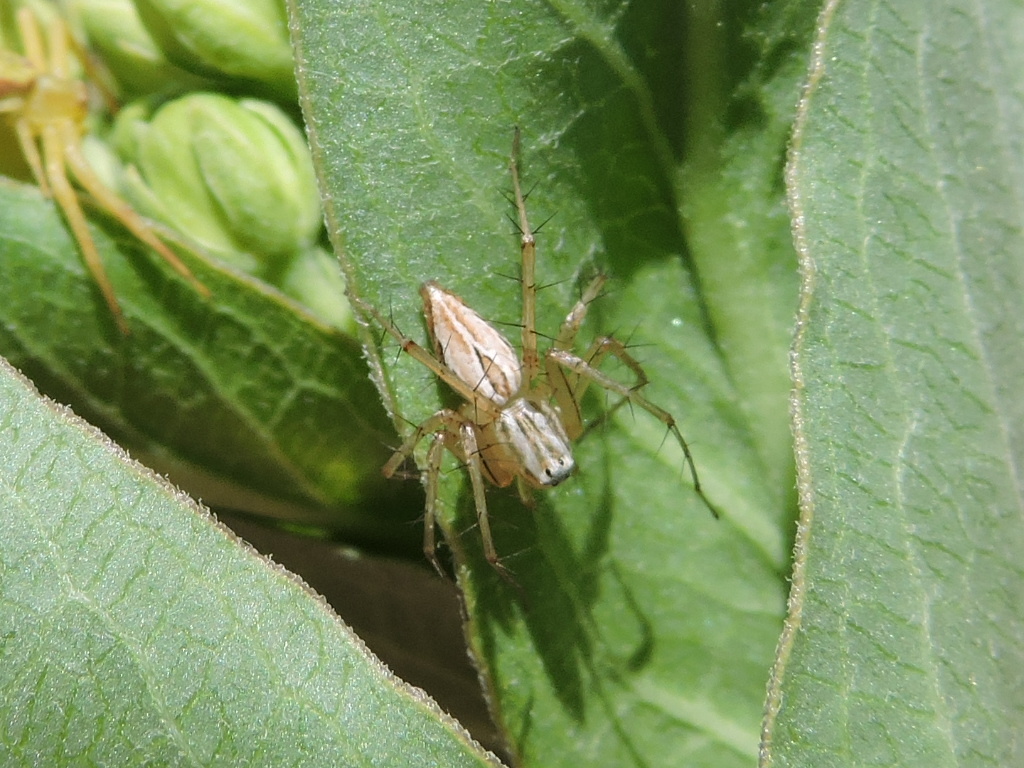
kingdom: Animalia
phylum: Arthropoda
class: Arachnida
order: Araneae
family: Oxyopidae
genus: Oxyopes
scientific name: Oxyopes salticus
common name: Lynx spiders
